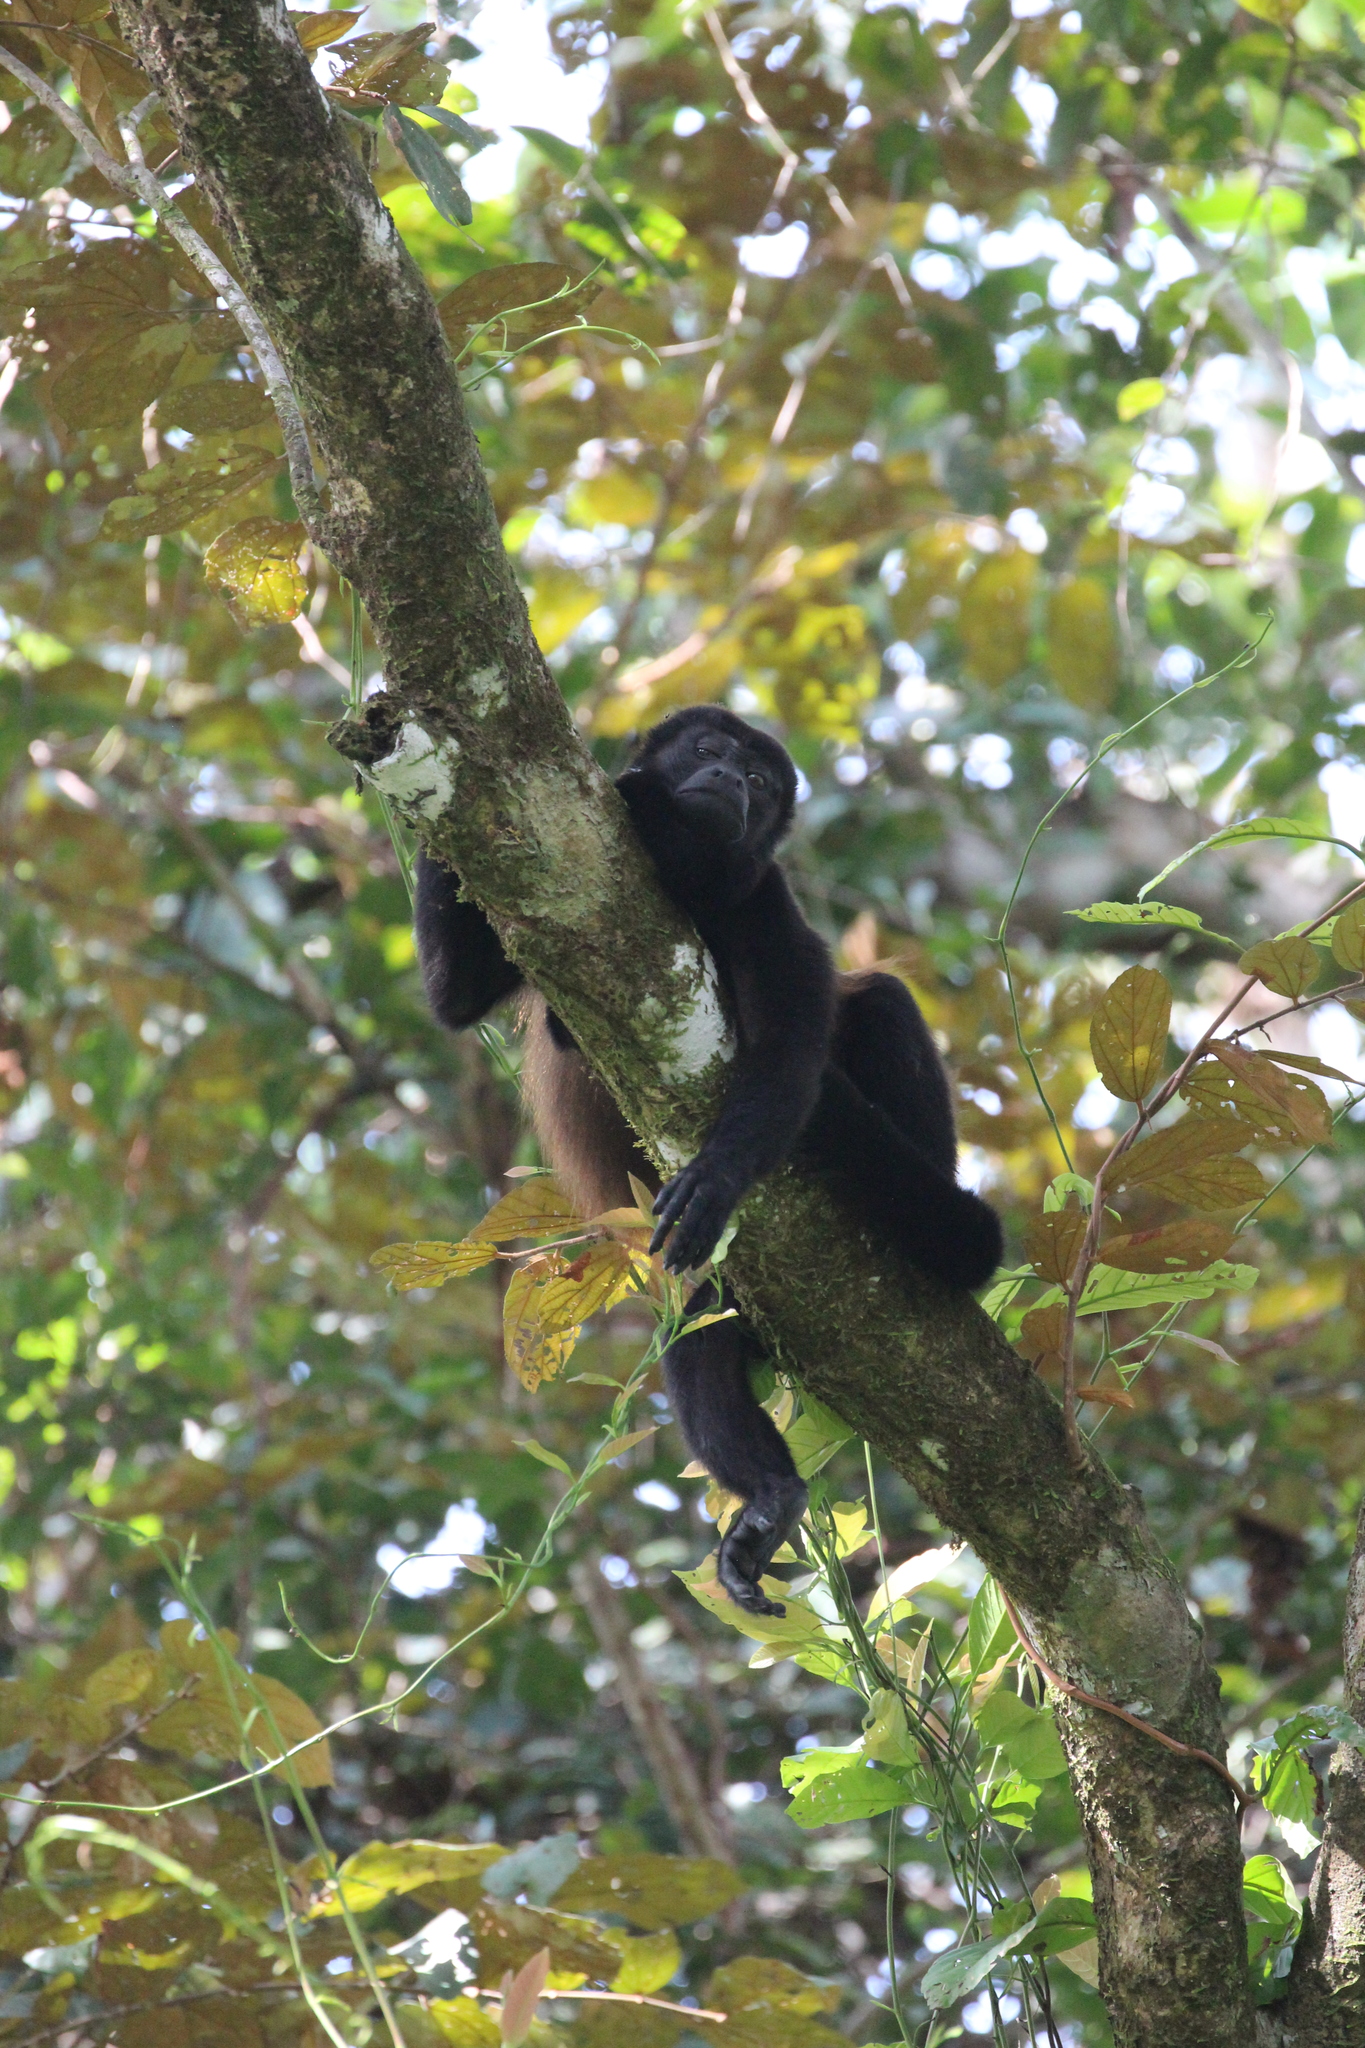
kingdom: Animalia
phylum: Chordata
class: Mammalia
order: Primates
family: Atelidae
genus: Alouatta
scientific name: Alouatta palliata
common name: Mantled howler
